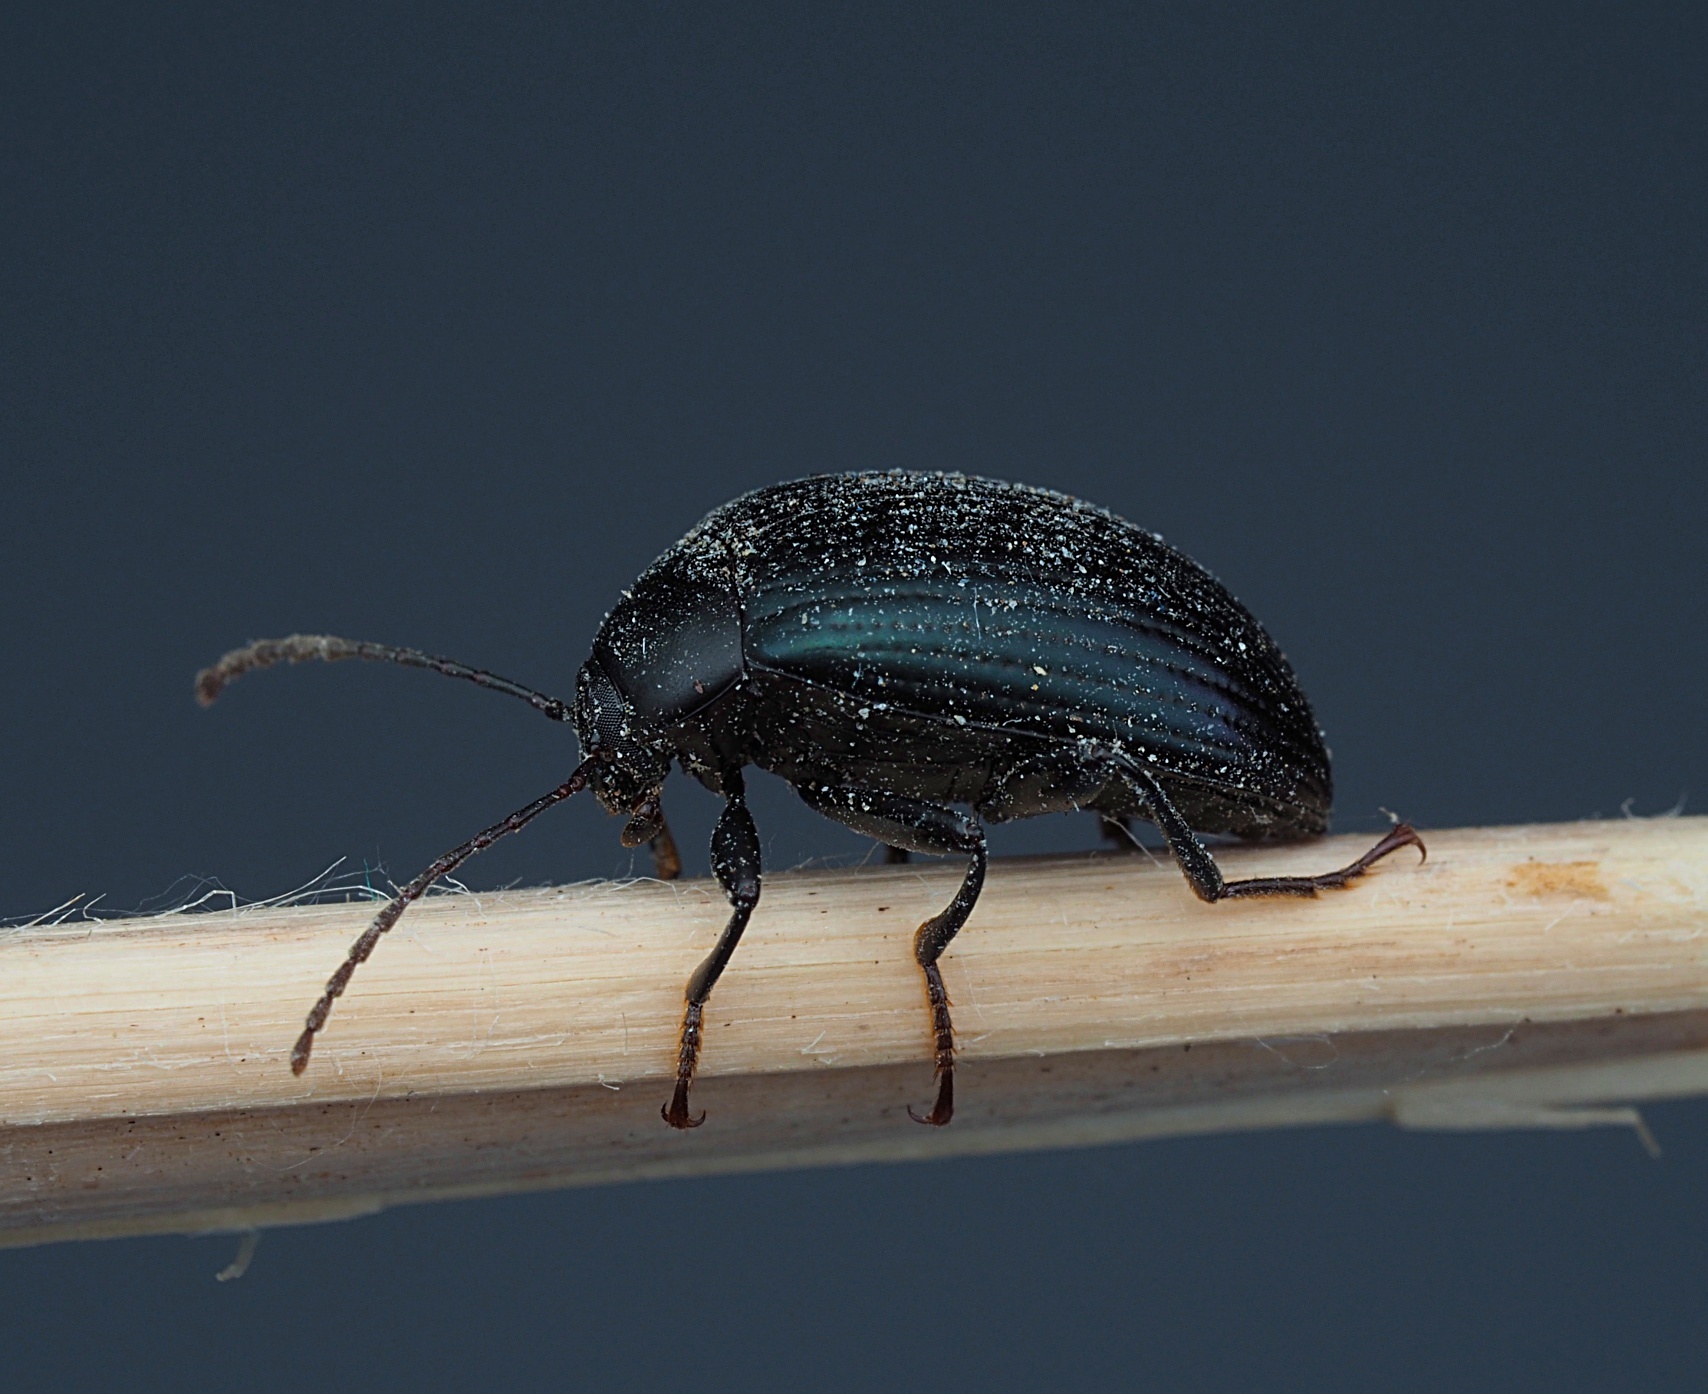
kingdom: Animalia
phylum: Arthropoda
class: Insecta
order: Coleoptera
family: Tenebrionidae
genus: Amarygmus
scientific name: Amarygmus
